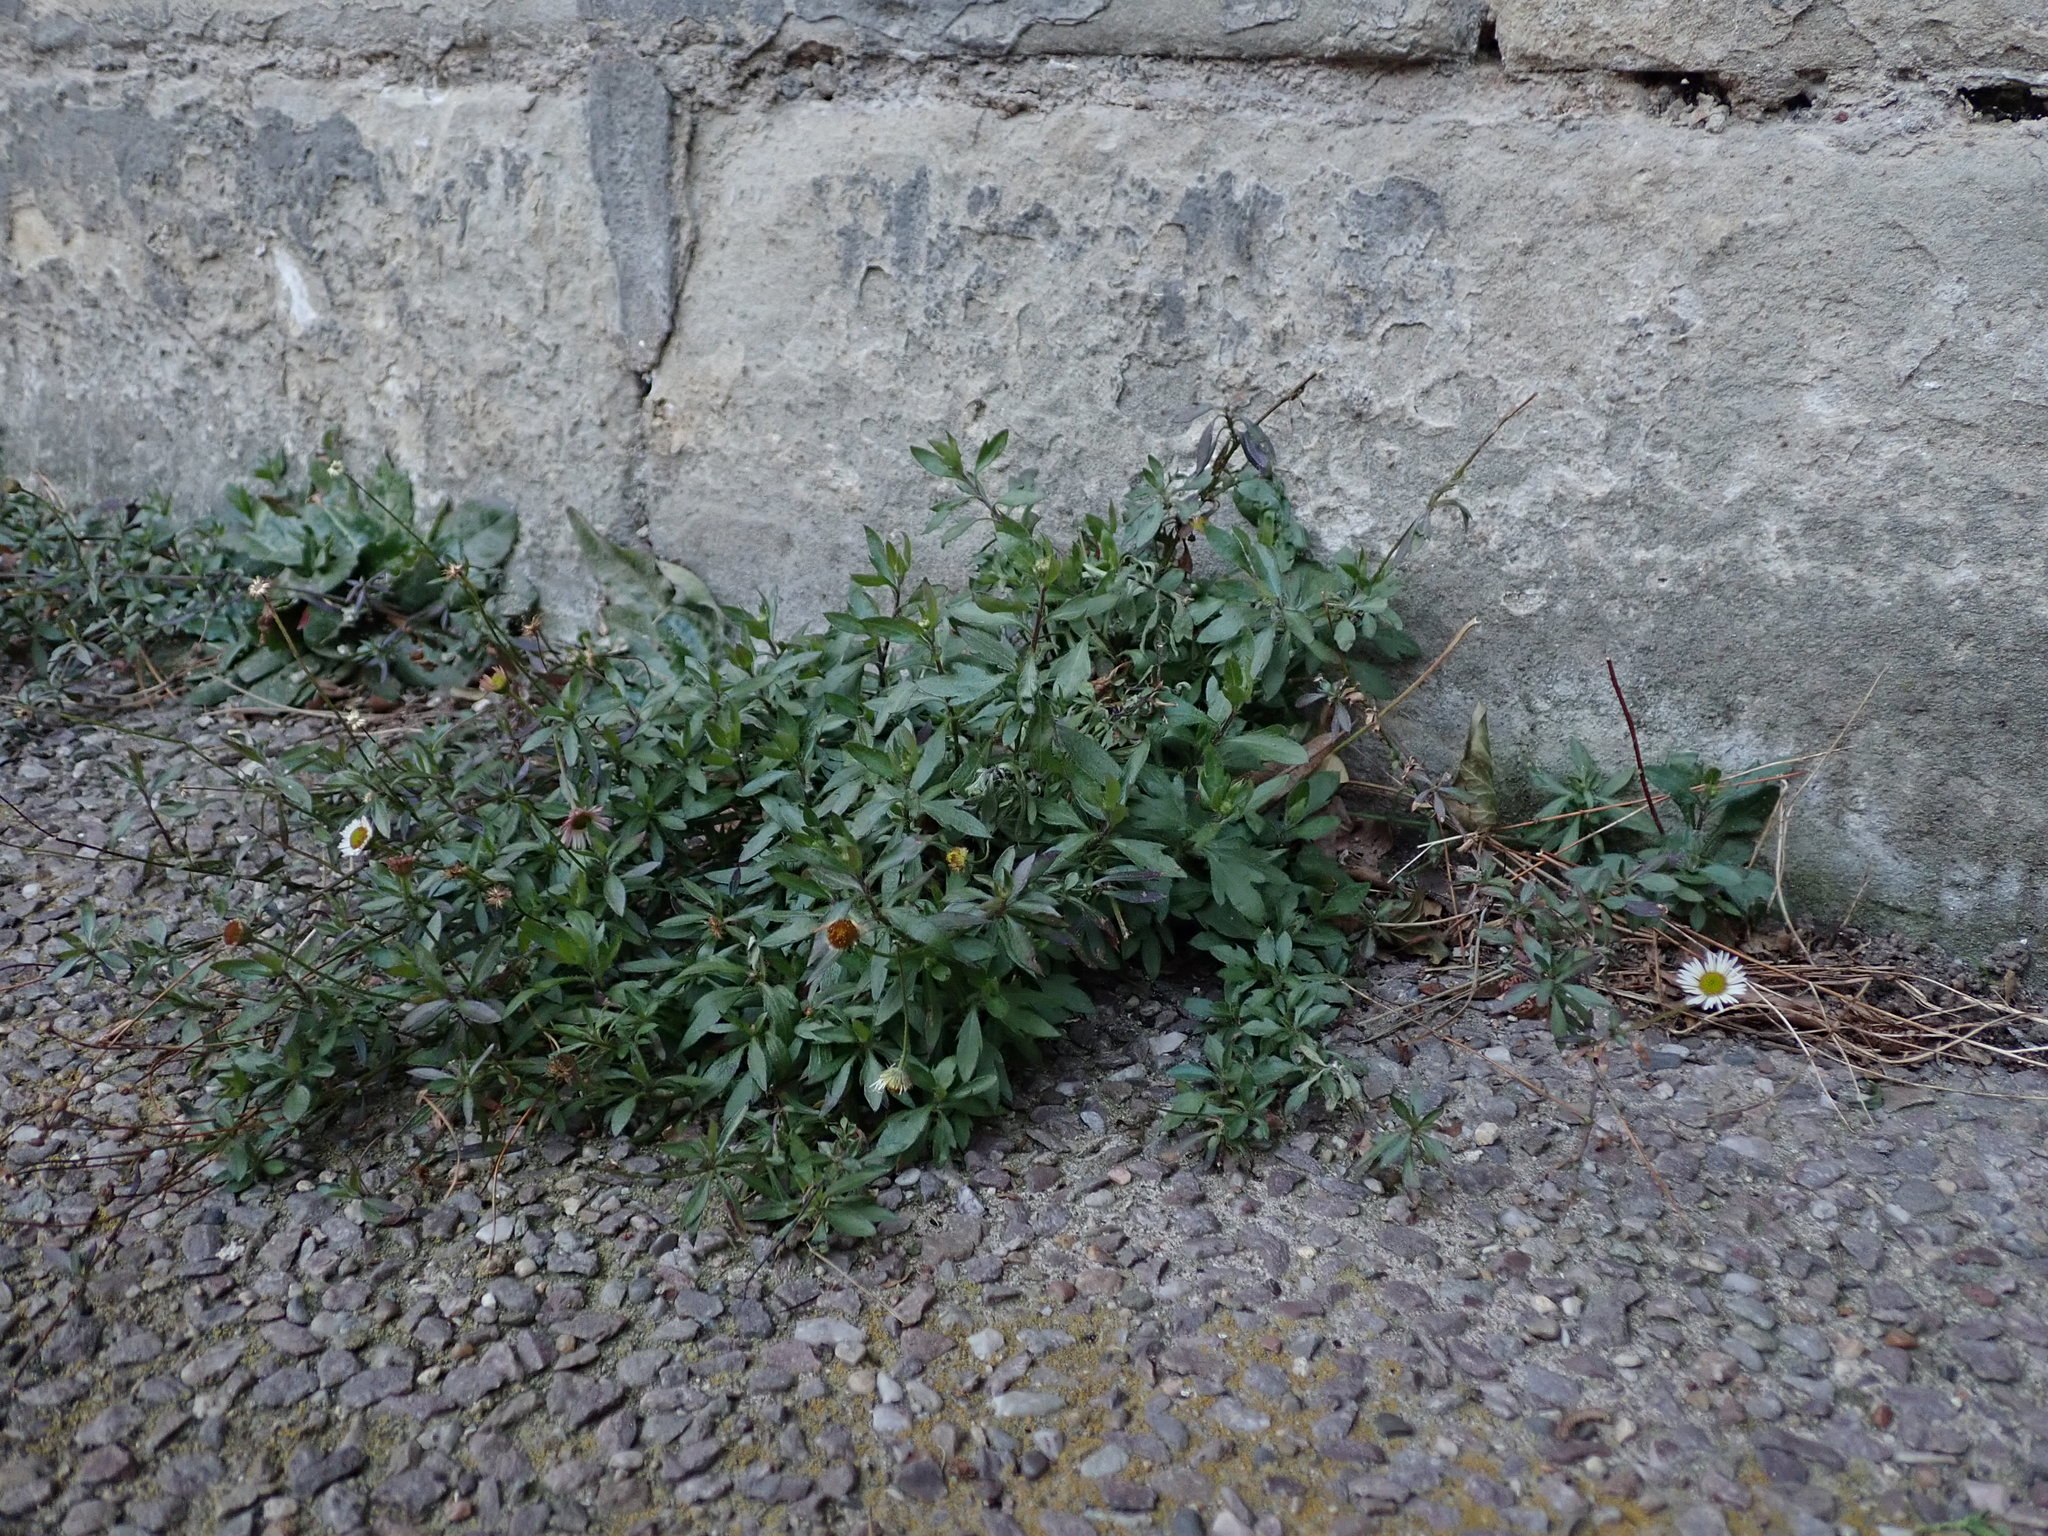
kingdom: Plantae
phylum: Tracheophyta
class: Magnoliopsida
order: Asterales
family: Asteraceae
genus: Erigeron
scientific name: Erigeron karvinskianus
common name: Mexican fleabane
